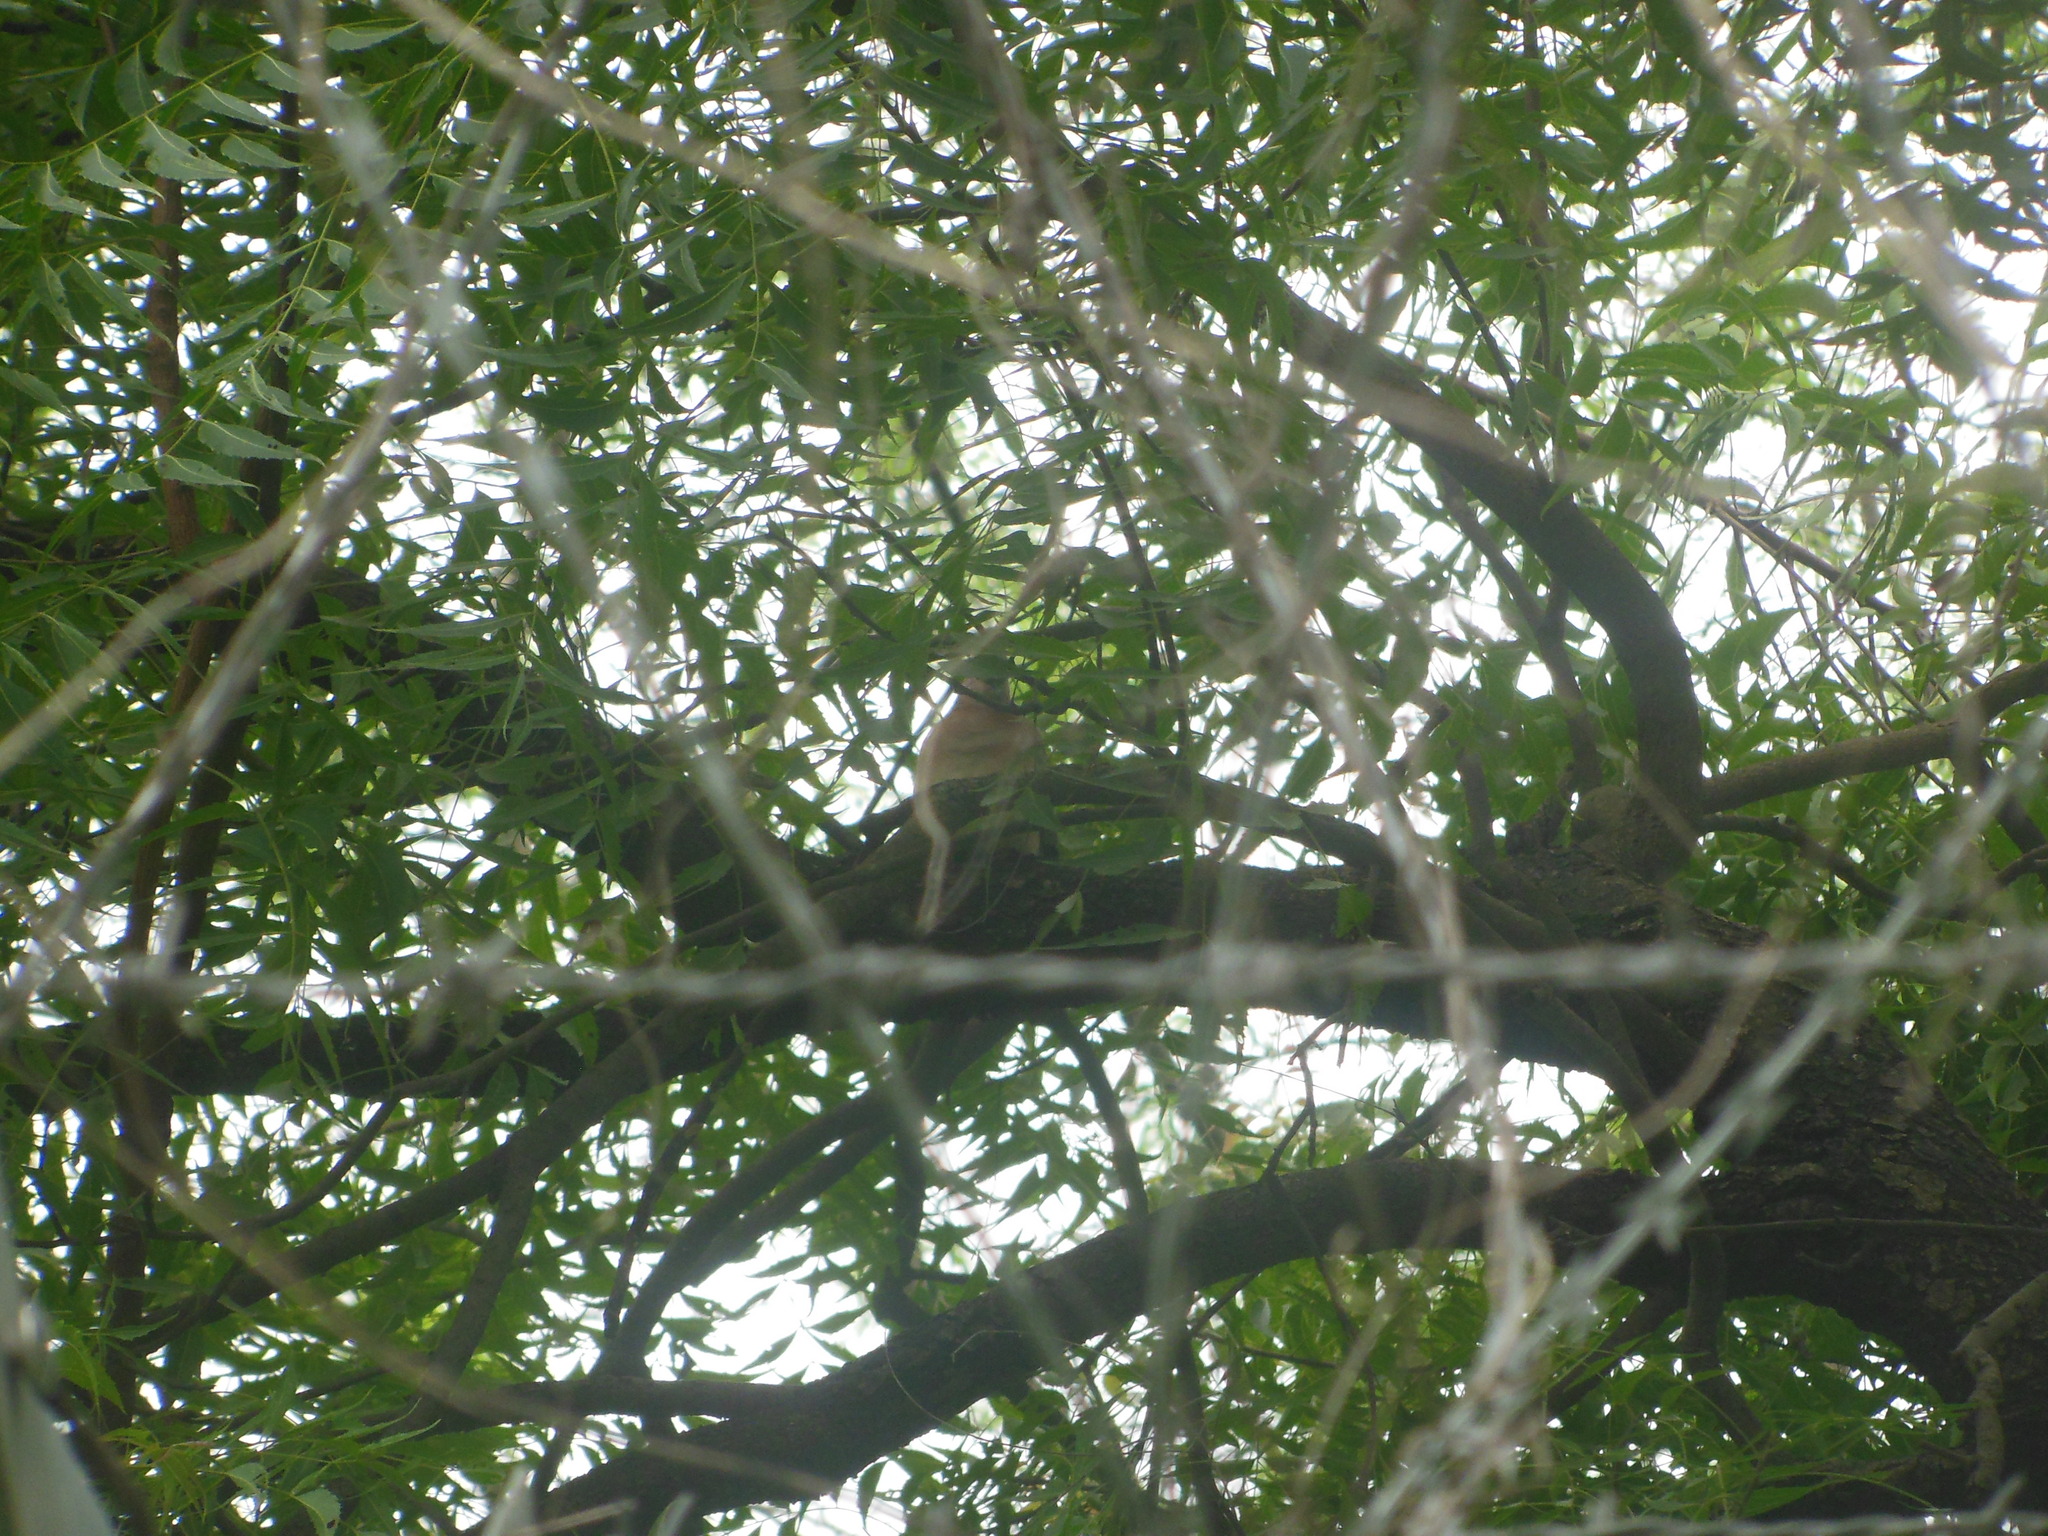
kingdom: Animalia
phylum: Chordata
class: Aves
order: Columbiformes
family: Columbidae
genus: Spilopelia
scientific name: Spilopelia senegalensis
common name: Laughing dove
